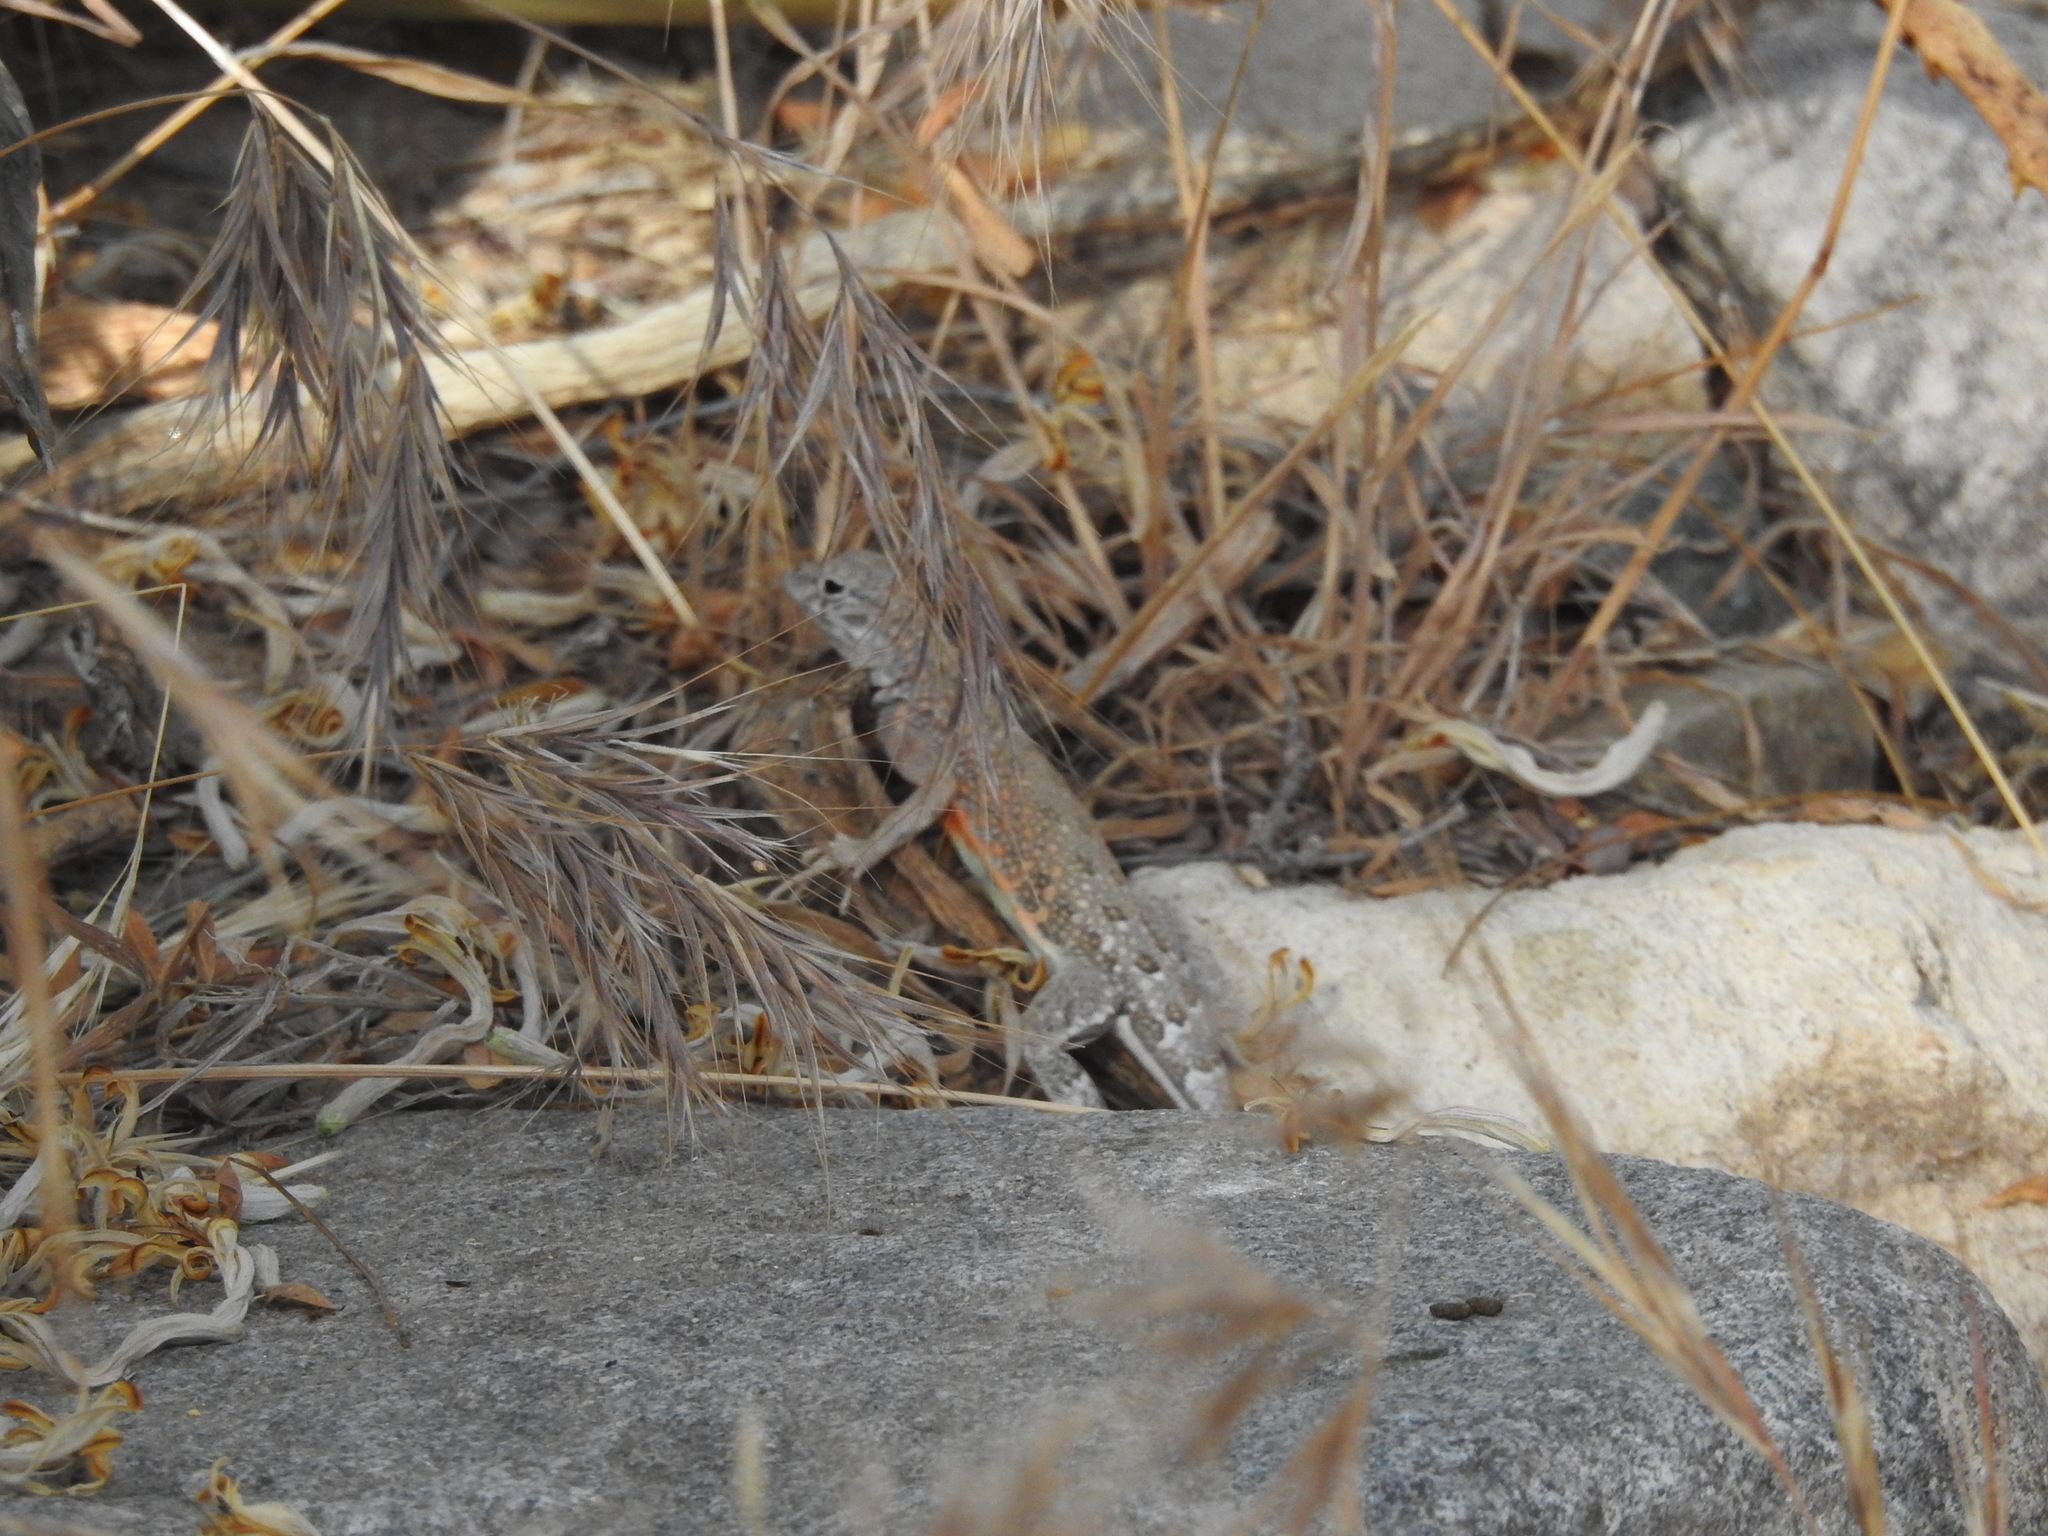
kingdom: Animalia
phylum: Chordata
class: Squamata
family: Phrynosomatidae
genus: Cophosaurus
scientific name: Cophosaurus texanus
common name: Greater earless lizard
